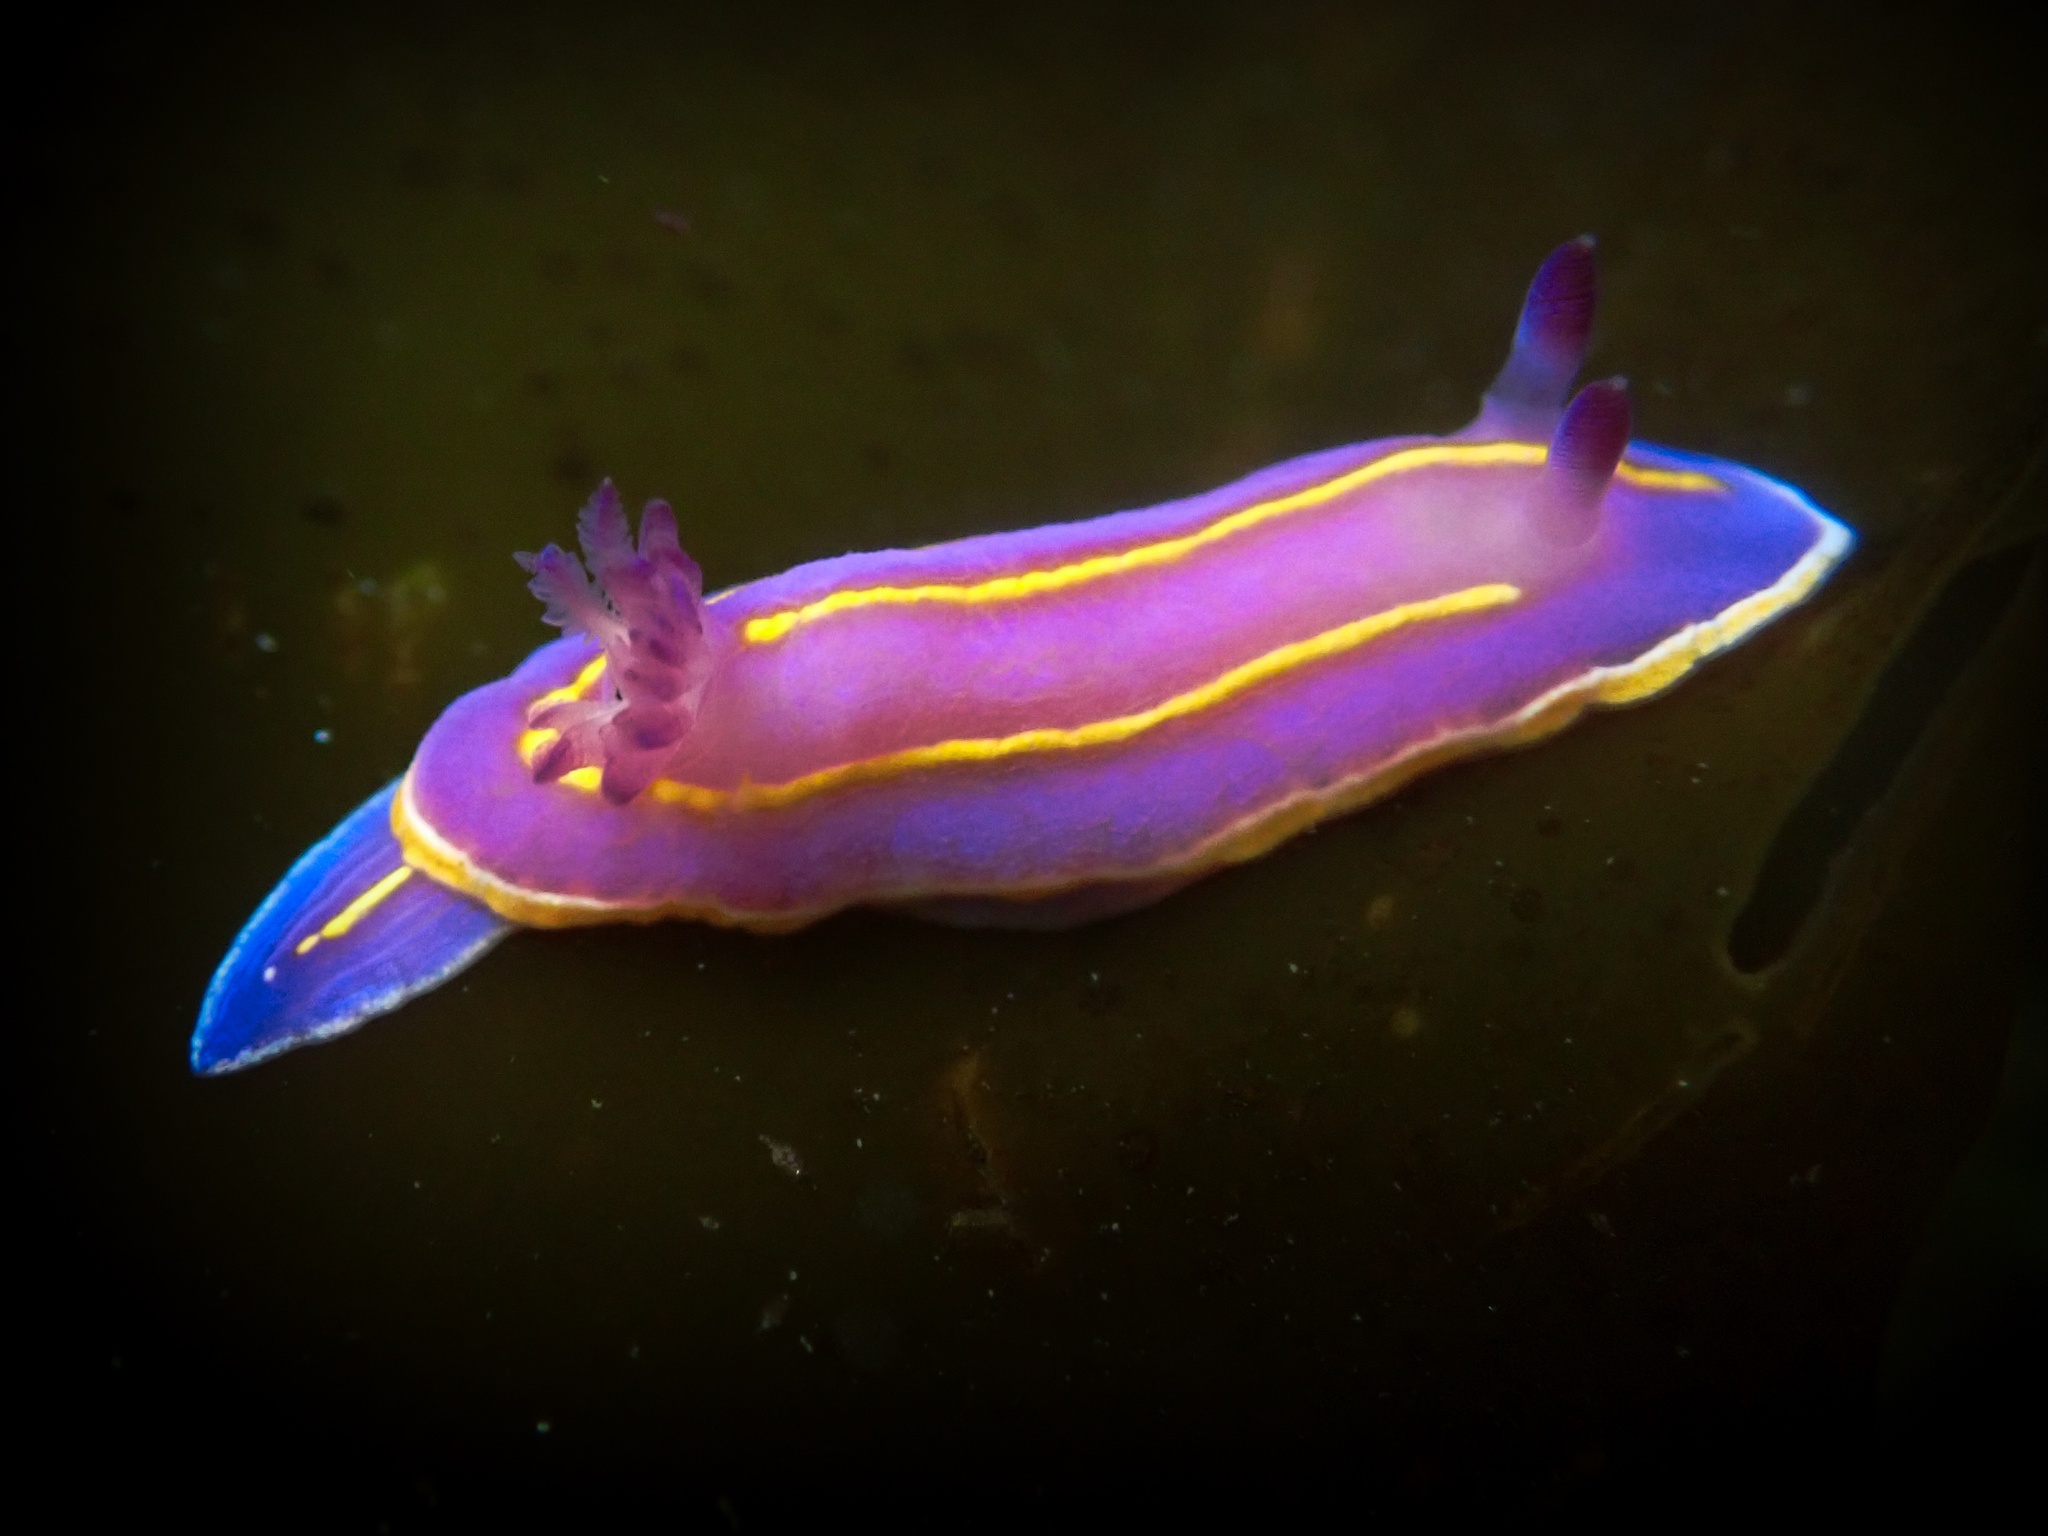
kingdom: Animalia
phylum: Mollusca
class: Gastropoda
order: Nudibranchia
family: Chromodorididae
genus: Felimida
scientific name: Felimida macfarlandi
